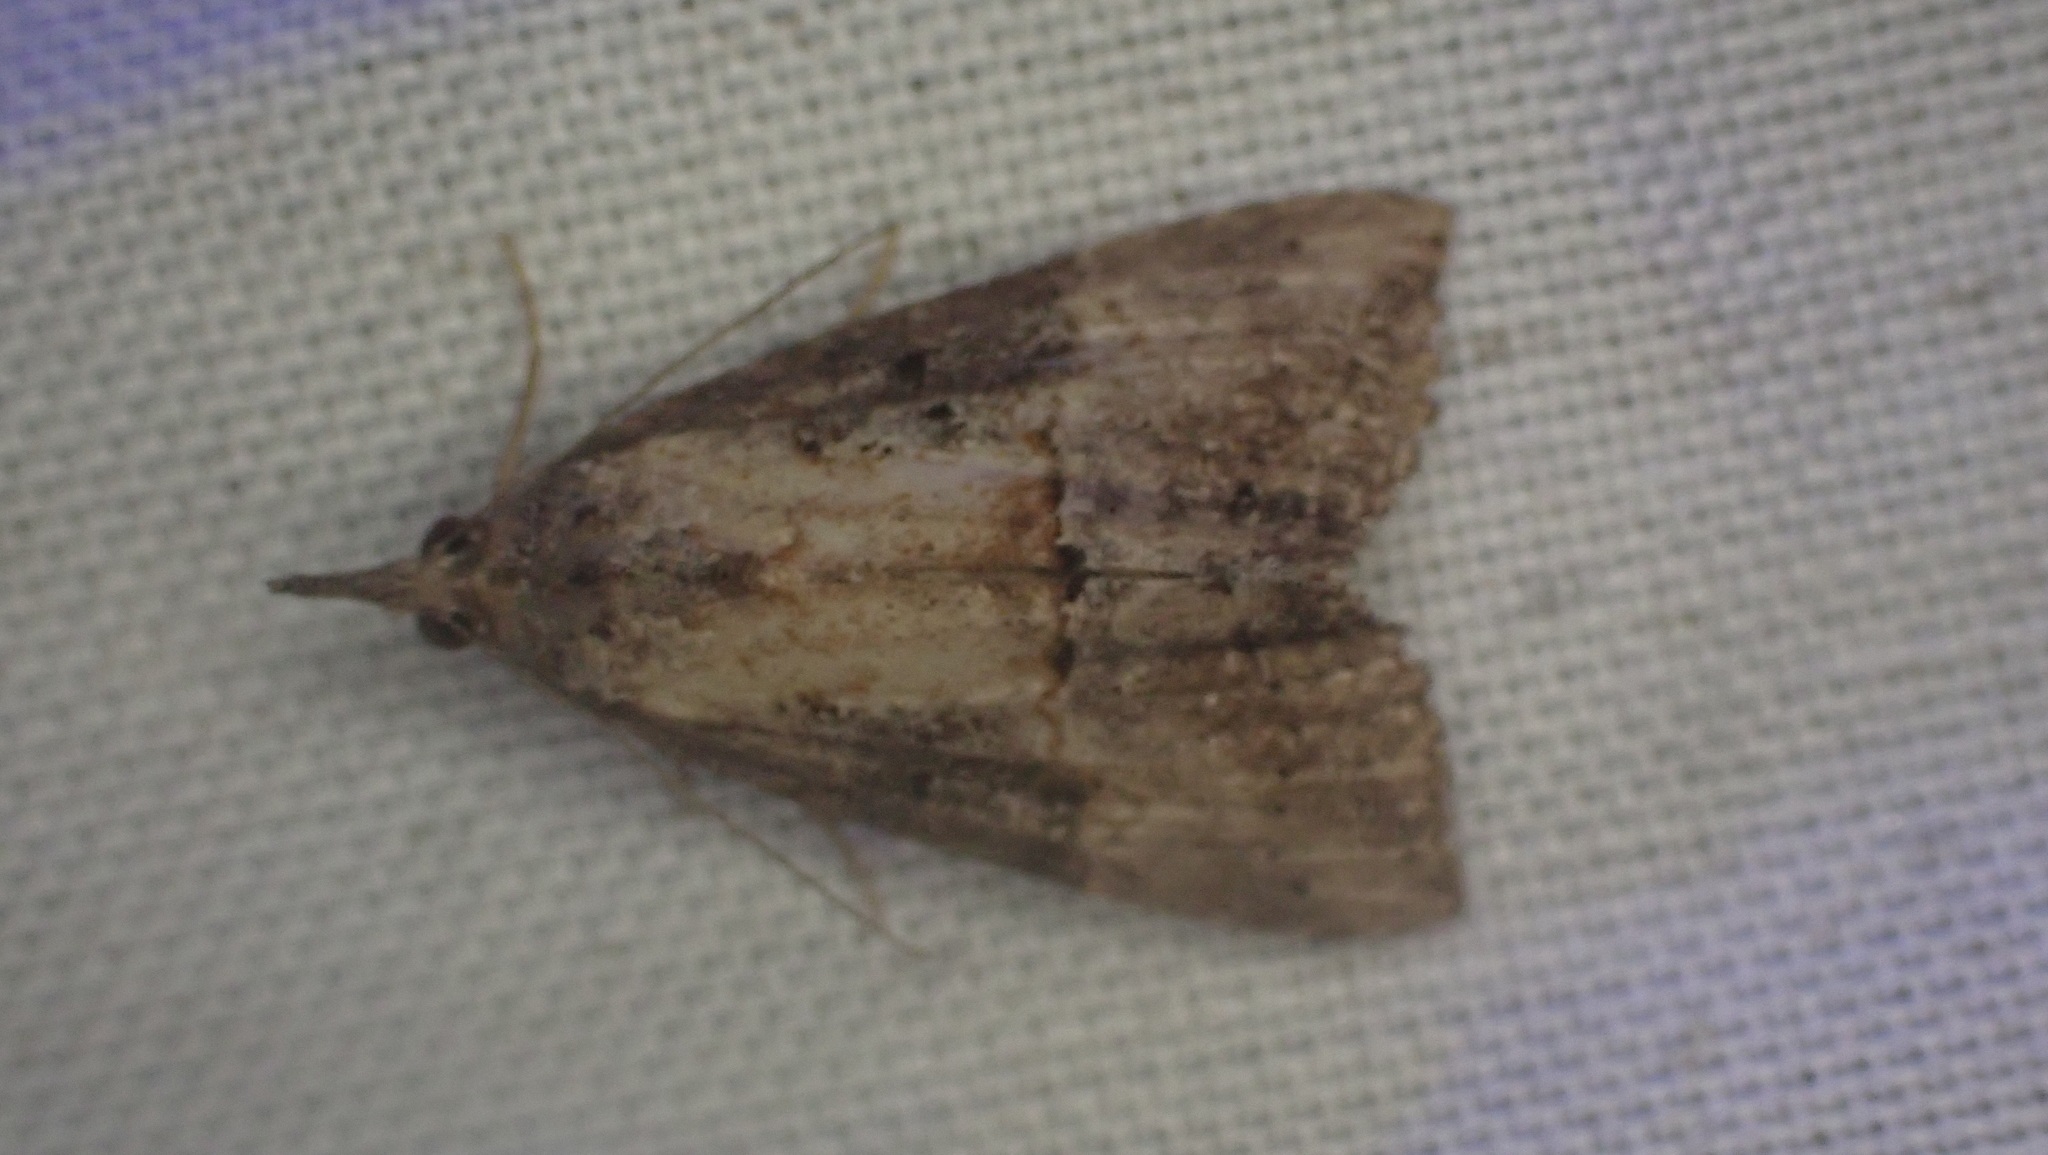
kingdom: Animalia
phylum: Arthropoda
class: Insecta
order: Lepidoptera
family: Erebidae
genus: Hypena
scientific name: Hypena scabra
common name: Green cloverworm
